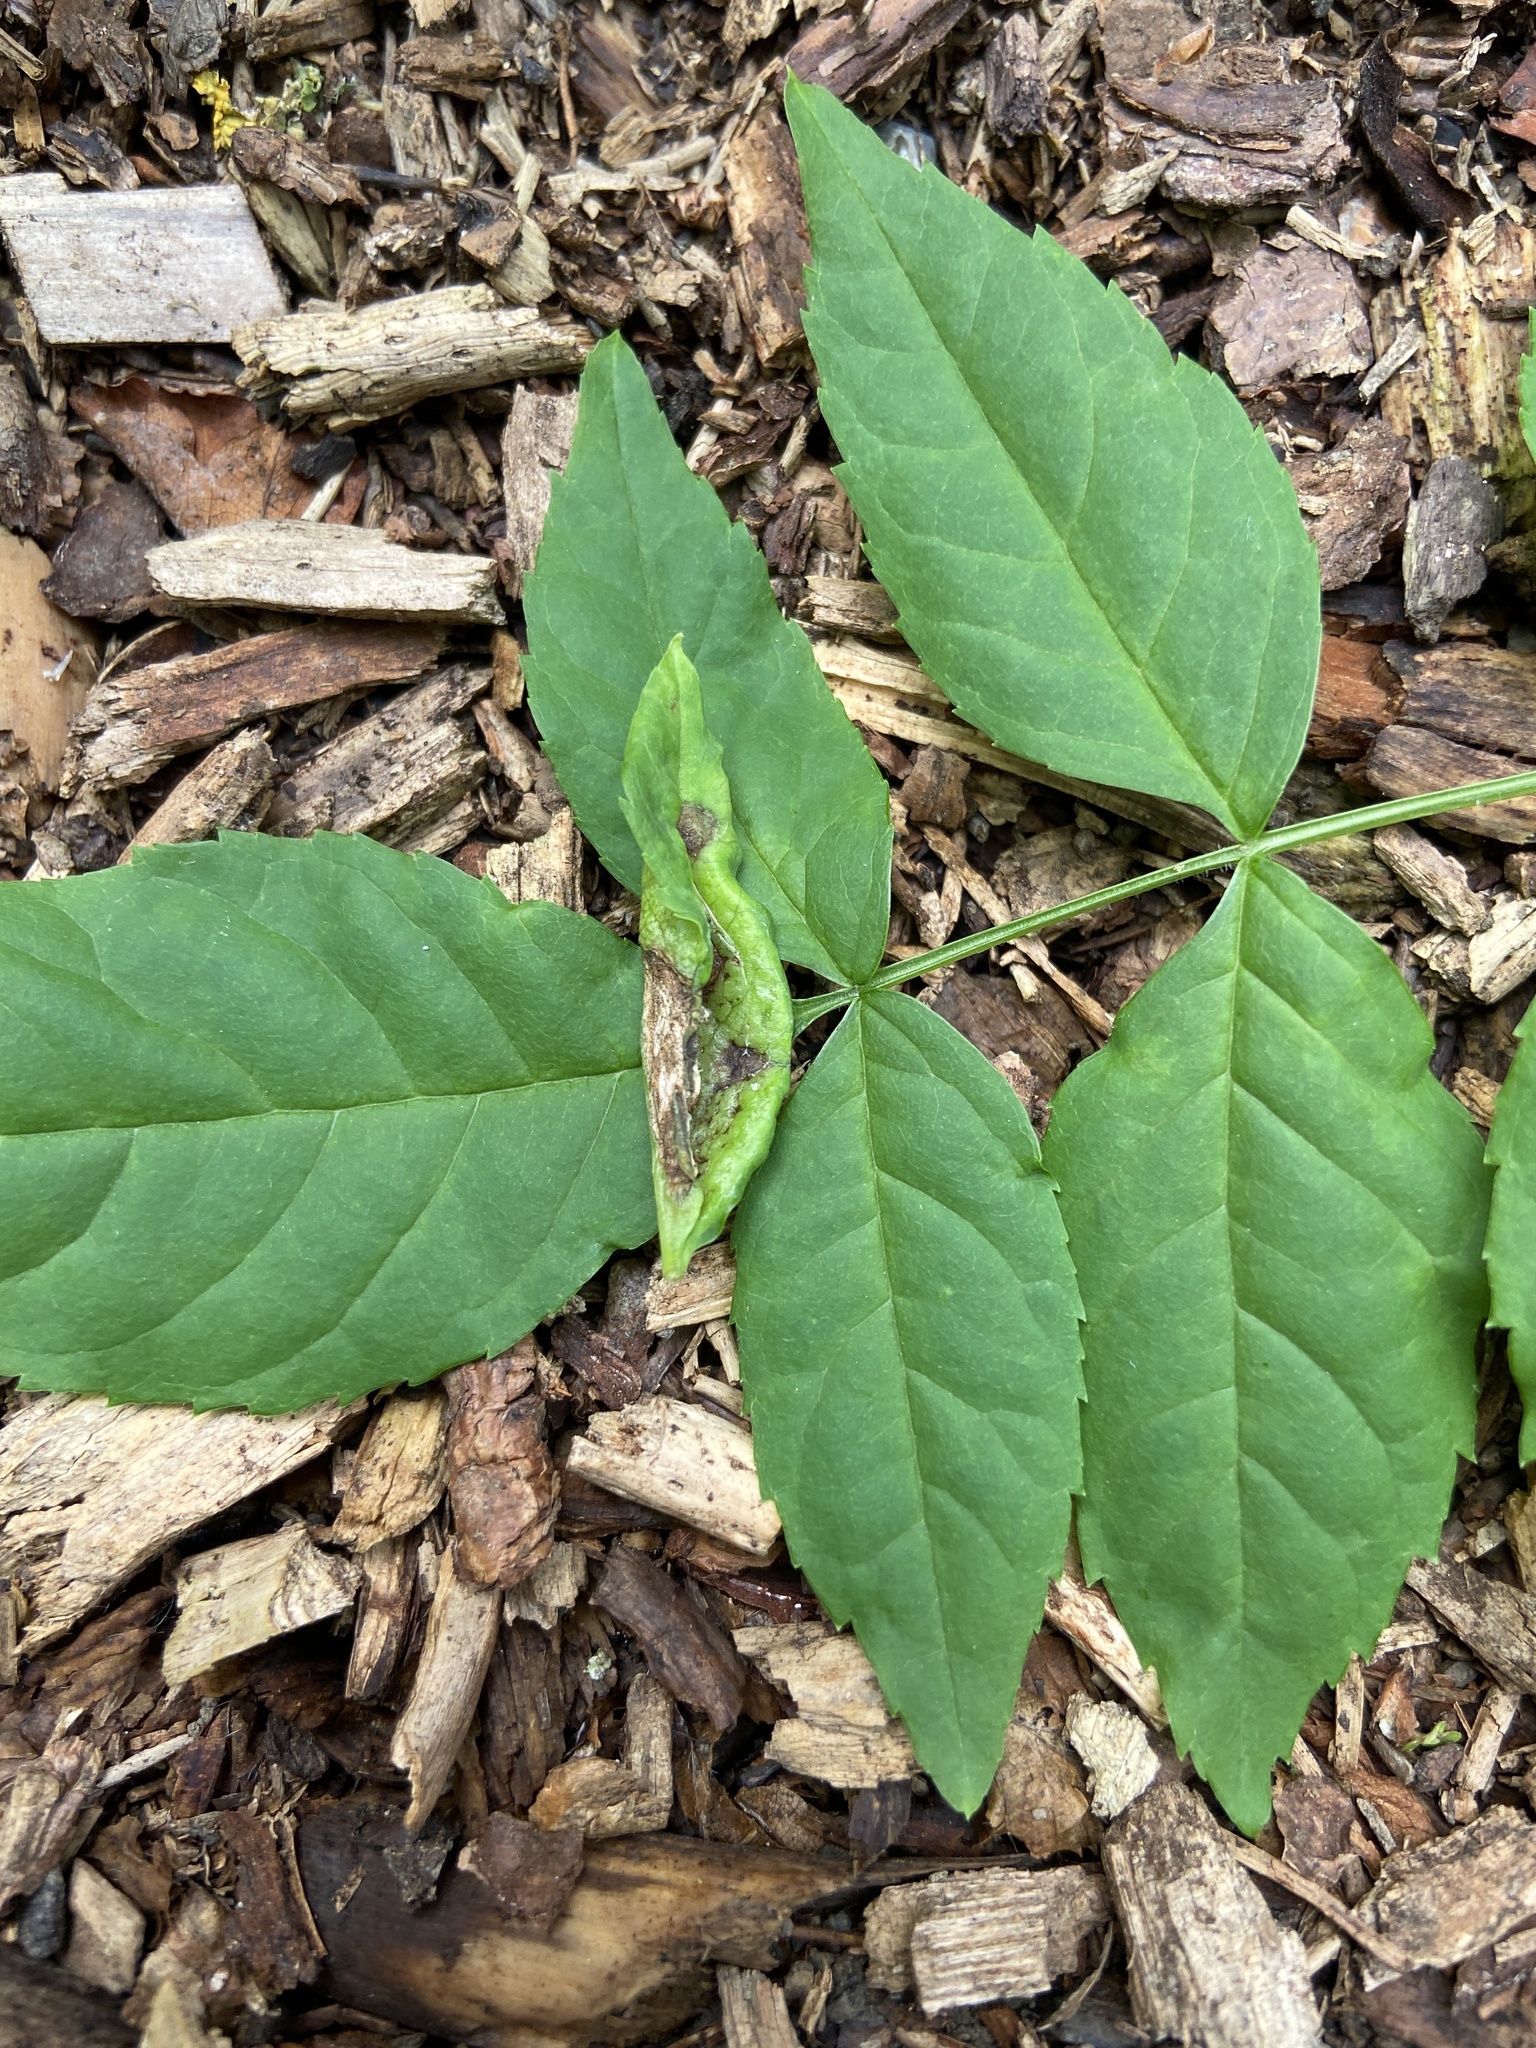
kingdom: Animalia
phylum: Arthropoda
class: Insecta
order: Diptera
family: Cecidomyiidae
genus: Dasineura
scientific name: Dasineura acrophila
